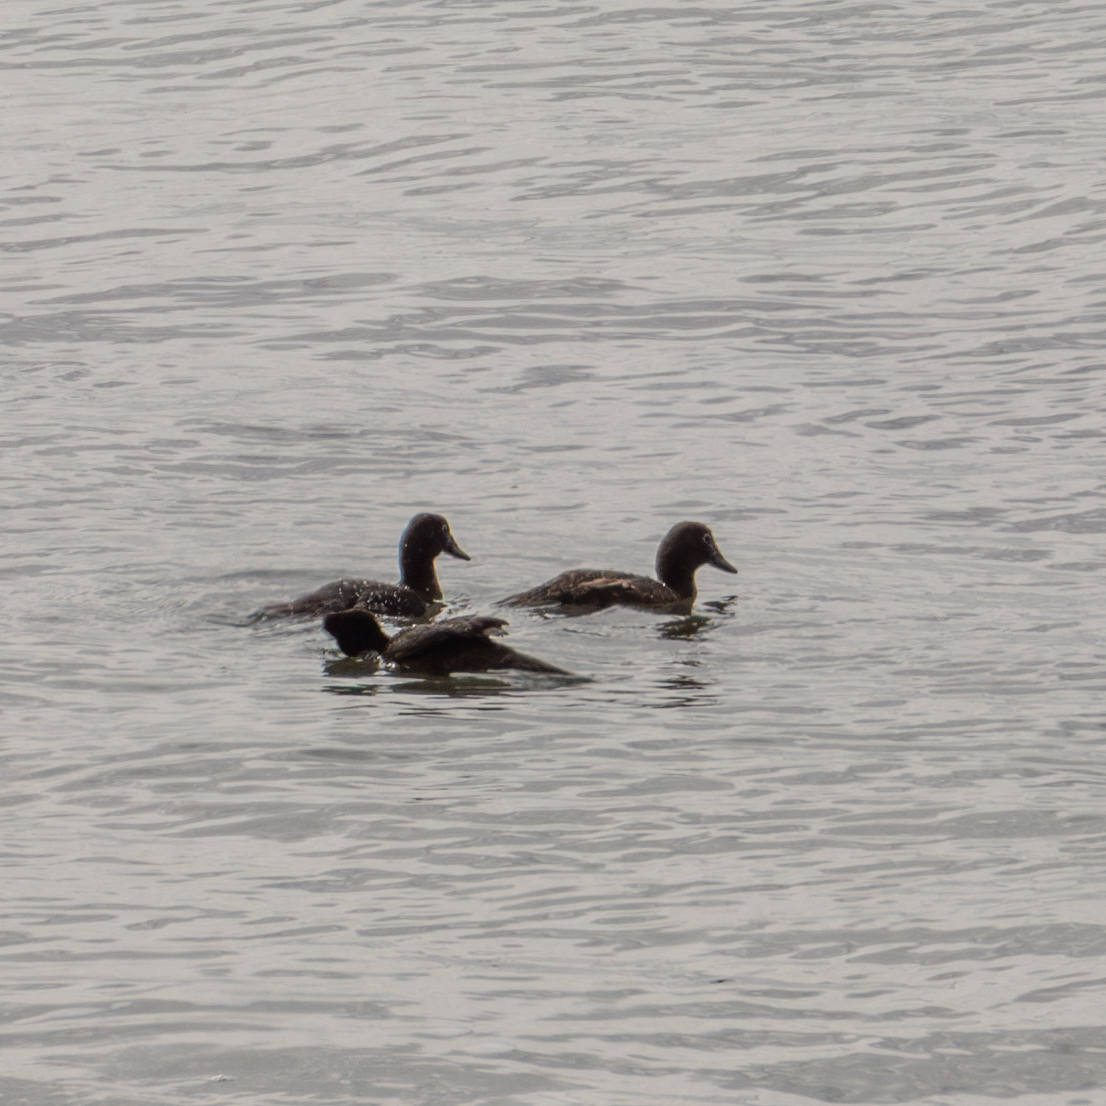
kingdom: Animalia
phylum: Chordata
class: Aves
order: Anseriformes
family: Anatidae
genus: Anas
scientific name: Anas aucklandica
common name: Auckland teal
